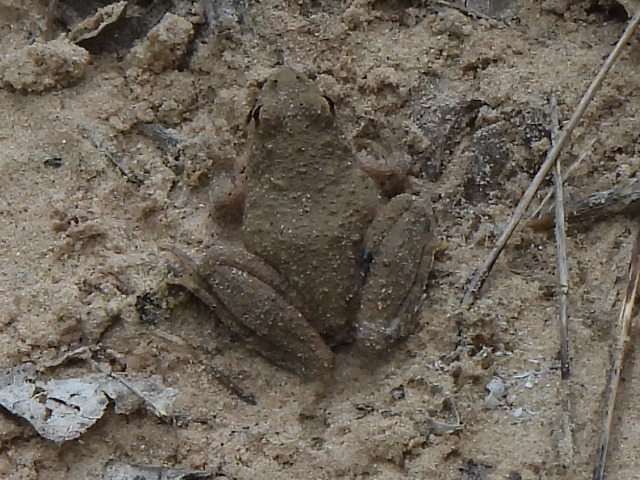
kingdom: Animalia
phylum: Chordata
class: Amphibia
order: Anura
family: Hylidae
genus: Acris
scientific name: Acris blanchardi
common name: Blanchard's cricket frog
